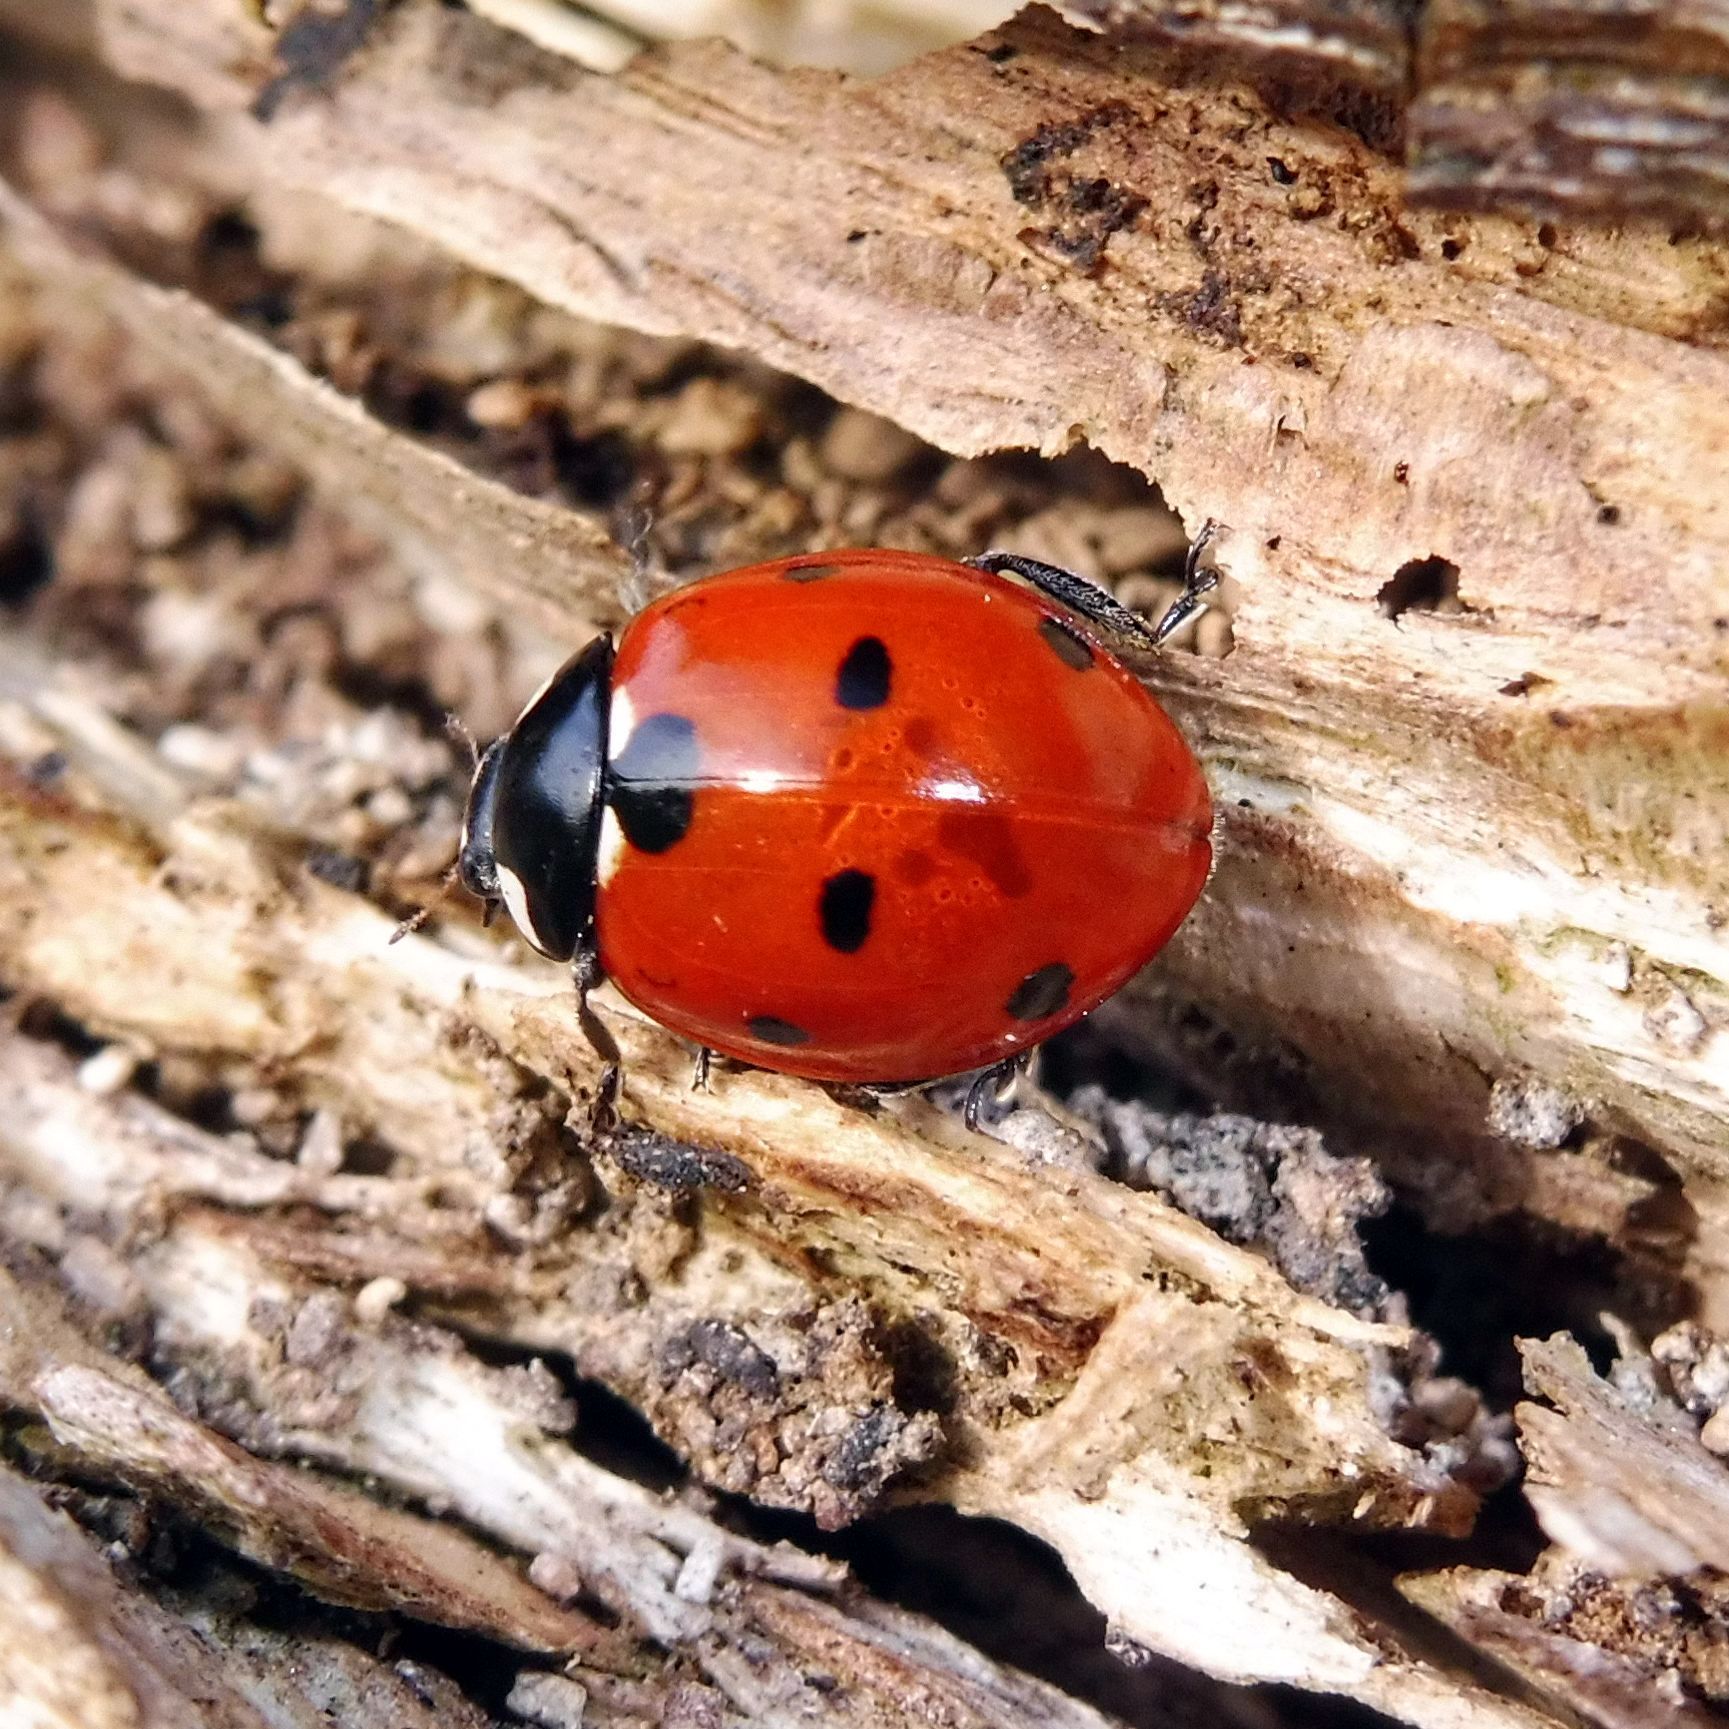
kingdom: Animalia
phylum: Arthropoda
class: Insecta
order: Coleoptera
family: Coccinellidae
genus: Coccinella
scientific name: Coccinella septempunctata
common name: Sevenspotted lady beetle
